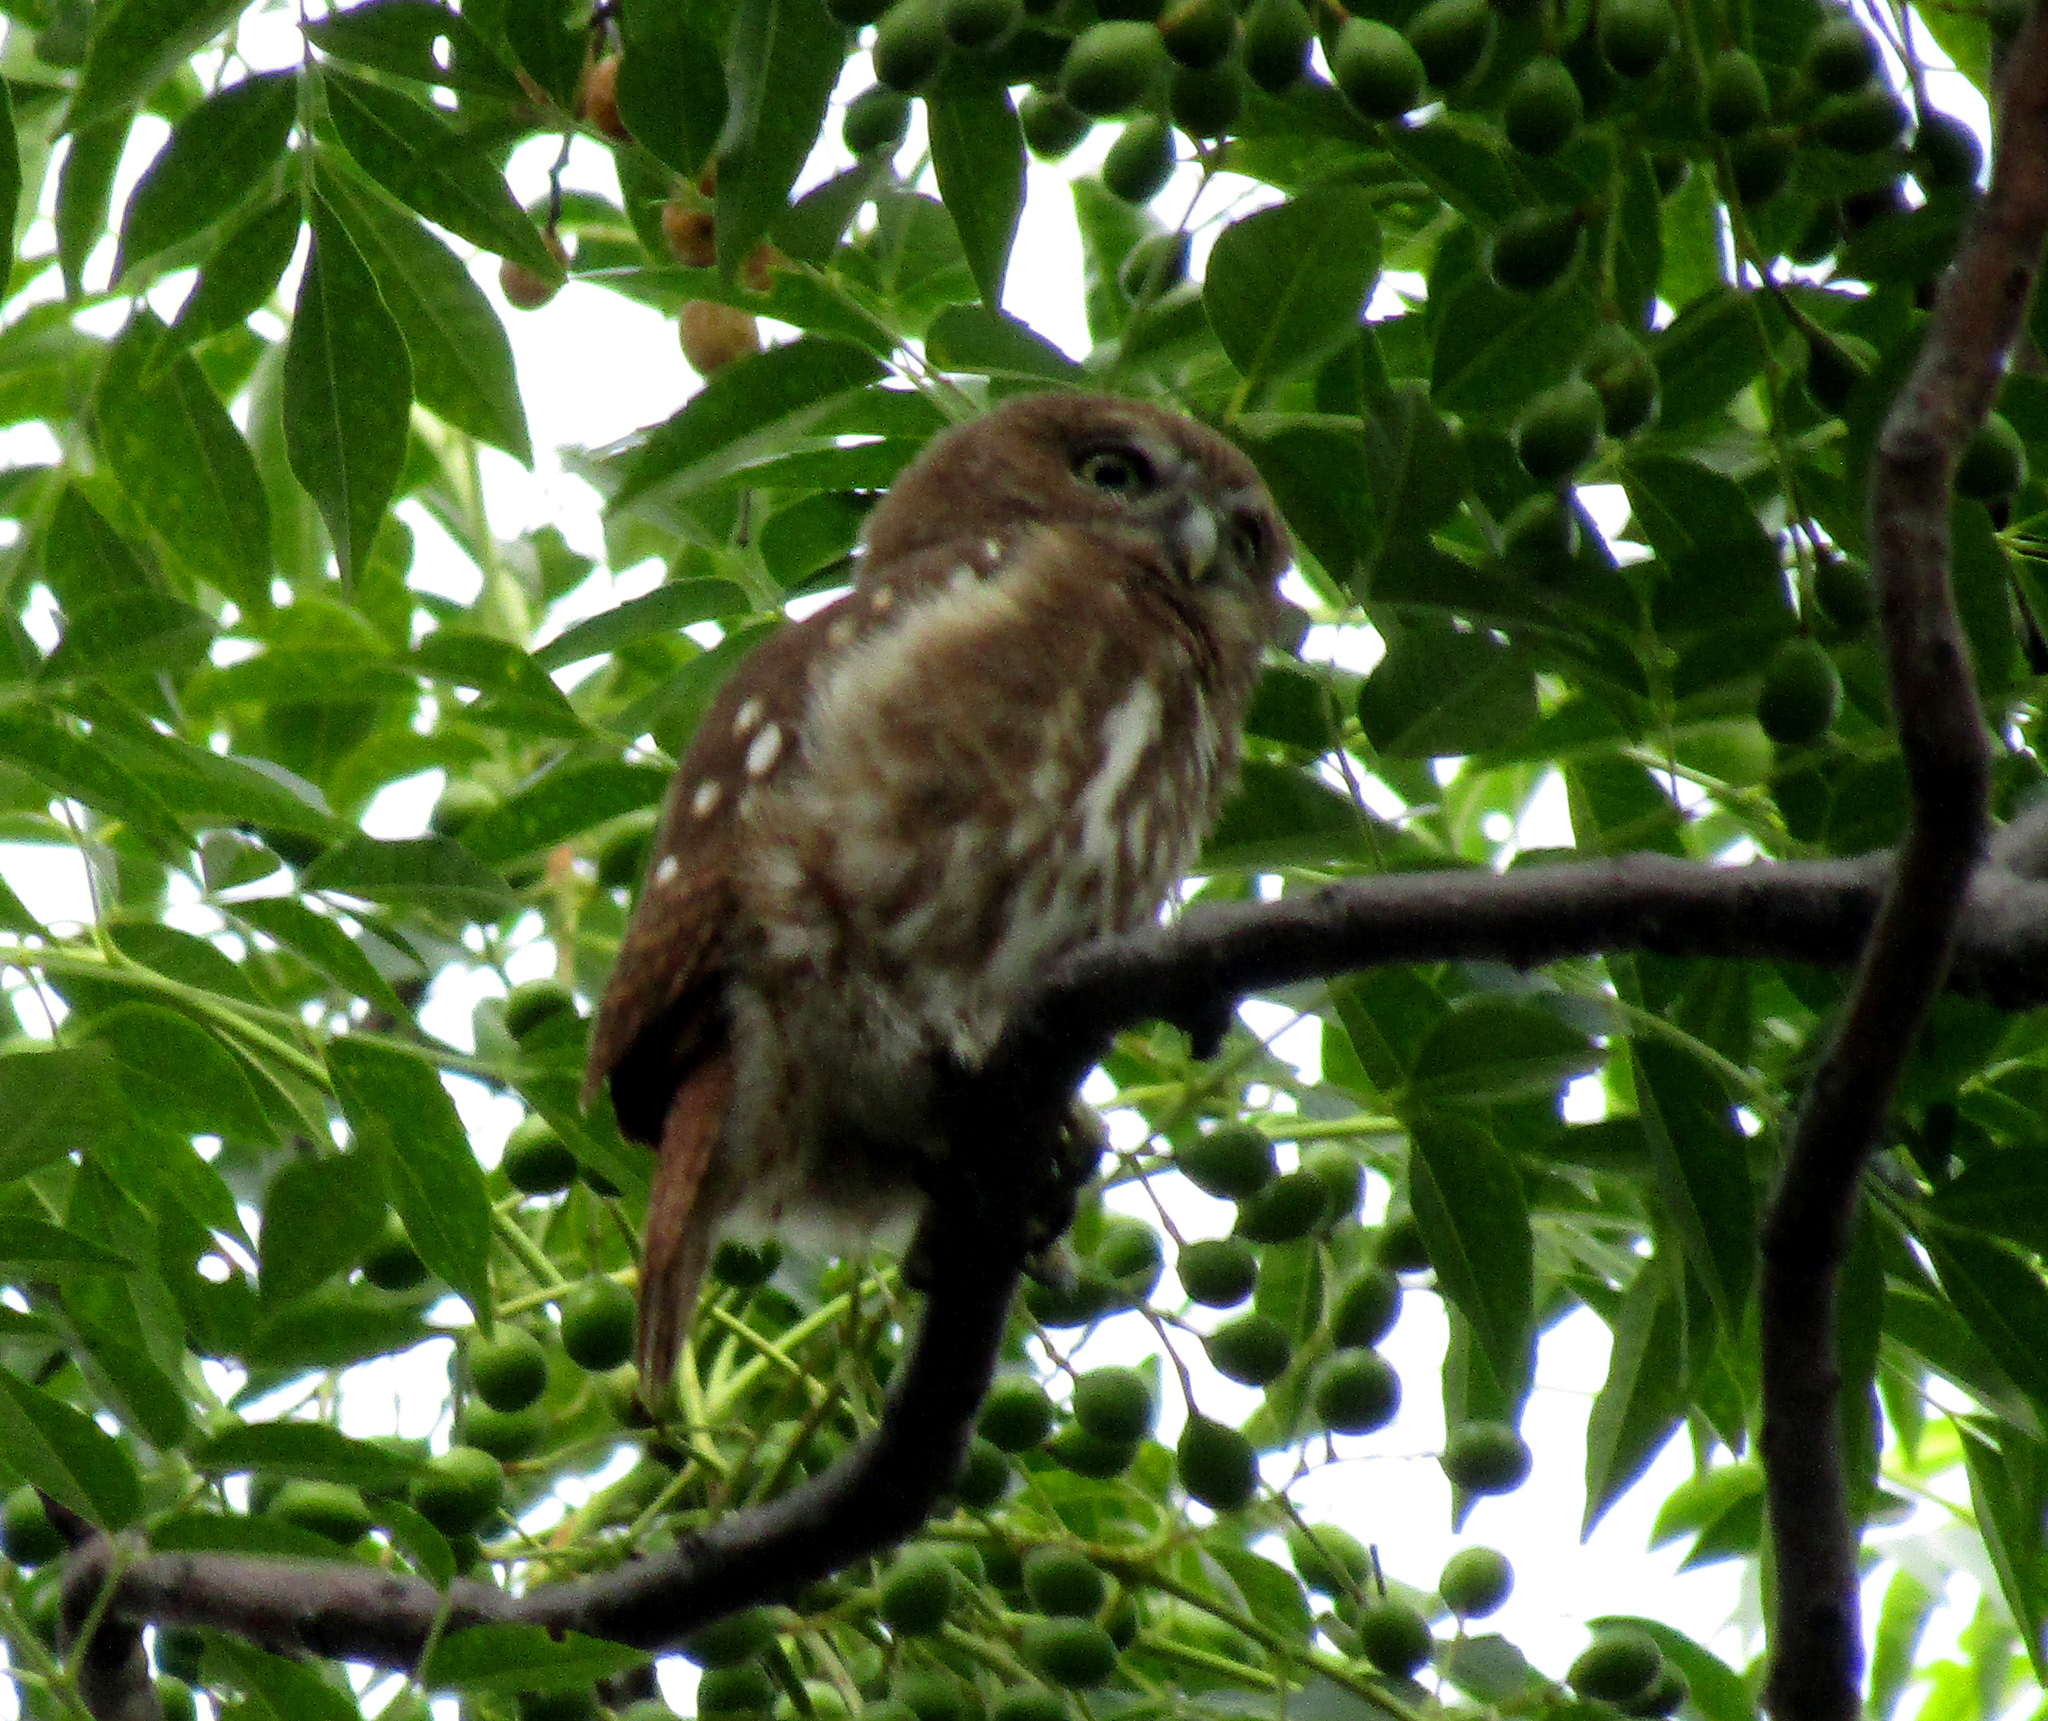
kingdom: Animalia
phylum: Chordata
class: Aves
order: Strigiformes
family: Strigidae
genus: Glaucidium
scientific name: Glaucidium brasilianum
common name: Ferruginous pygmy-owl
